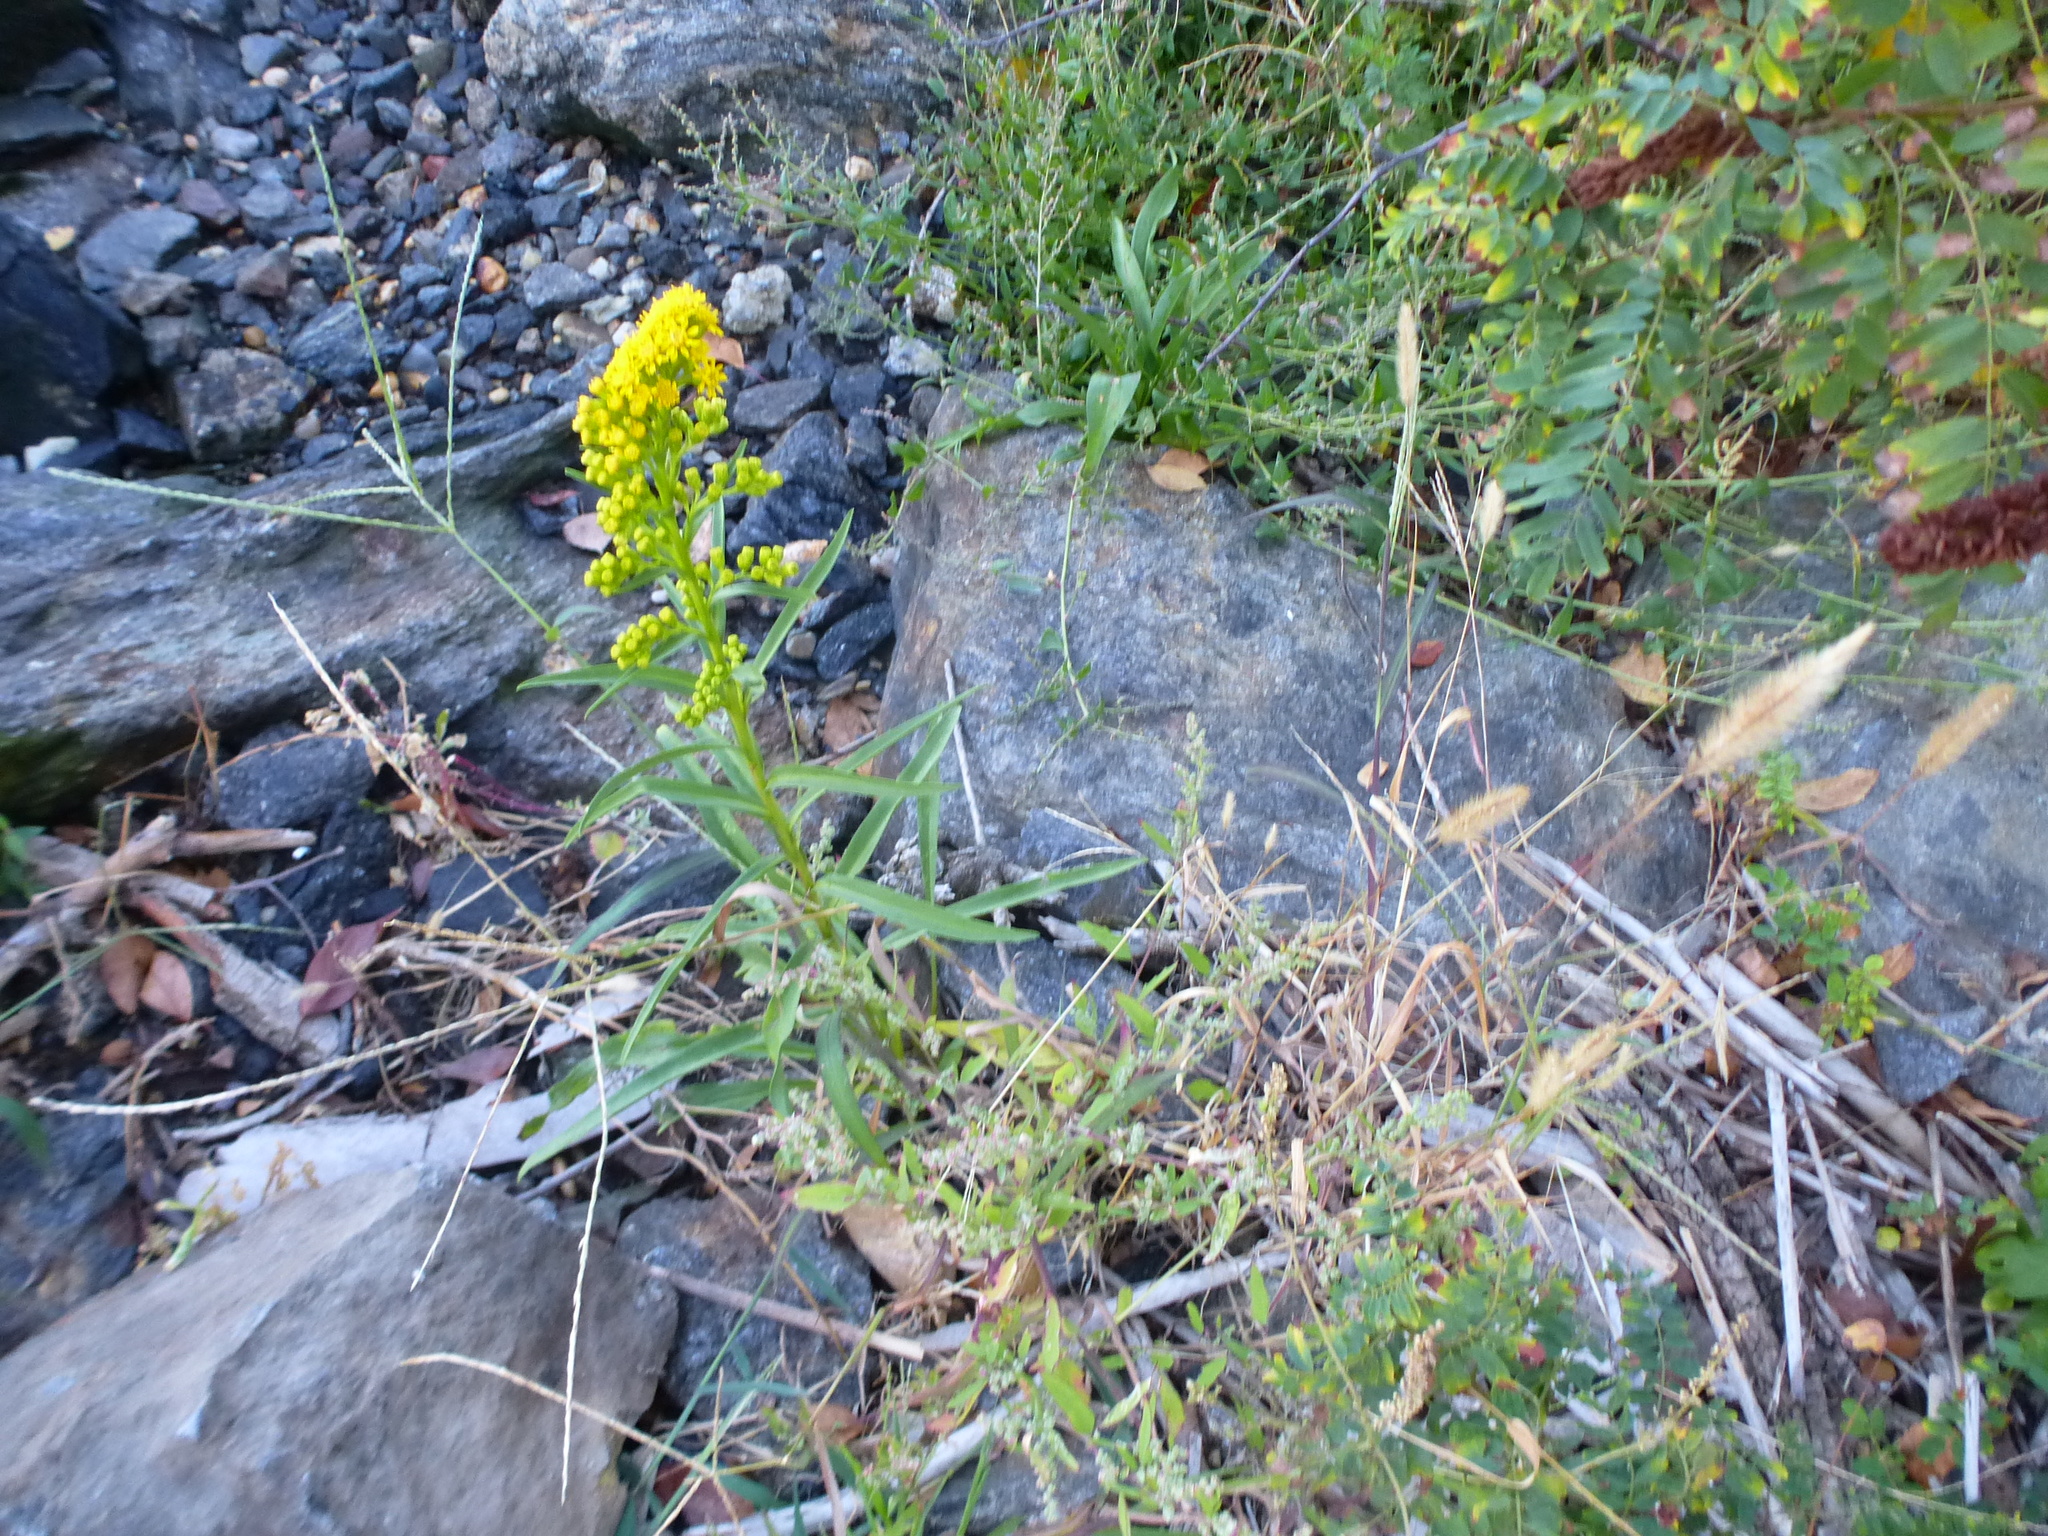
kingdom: Plantae
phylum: Tracheophyta
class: Magnoliopsida
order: Asterales
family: Asteraceae
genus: Solidago
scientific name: Solidago sempervirens
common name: Salt-marsh goldenrod
